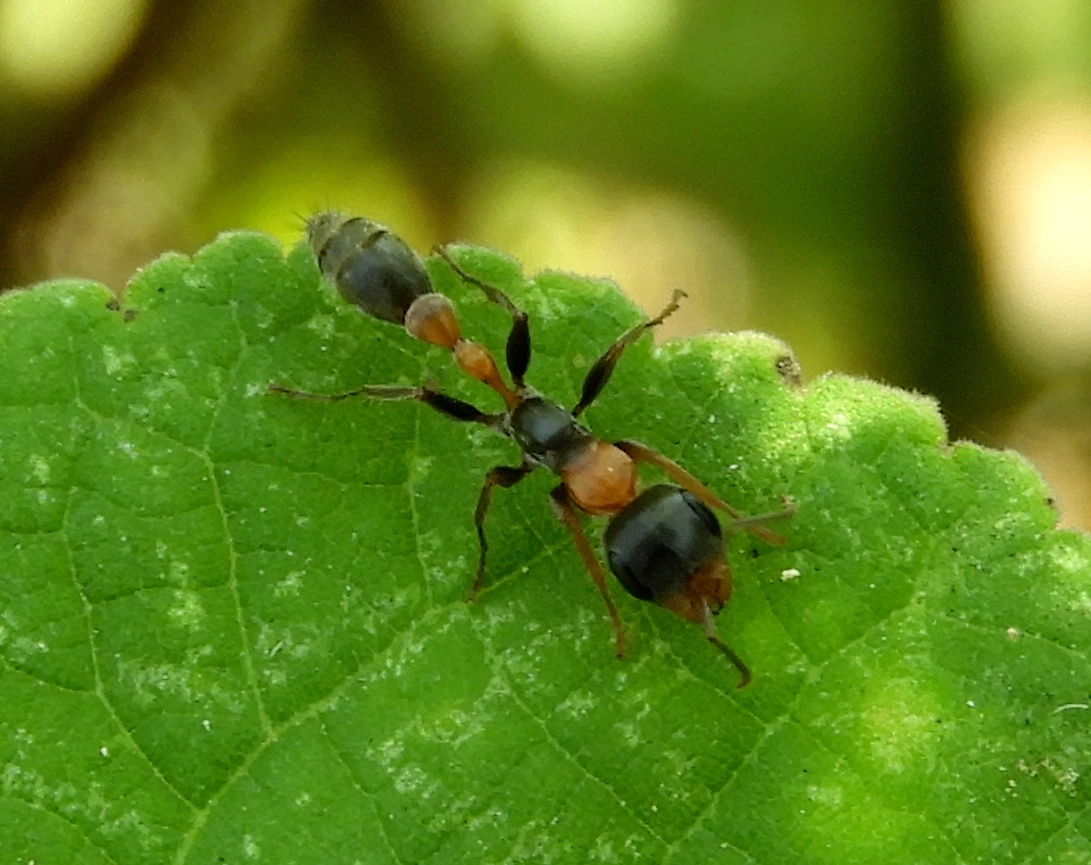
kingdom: Animalia
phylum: Arthropoda
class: Insecta
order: Hymenoptera
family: Formicidae
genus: Pseudomyrmex
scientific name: Pseudomyrmex gracilis
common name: Graceful twig ant
